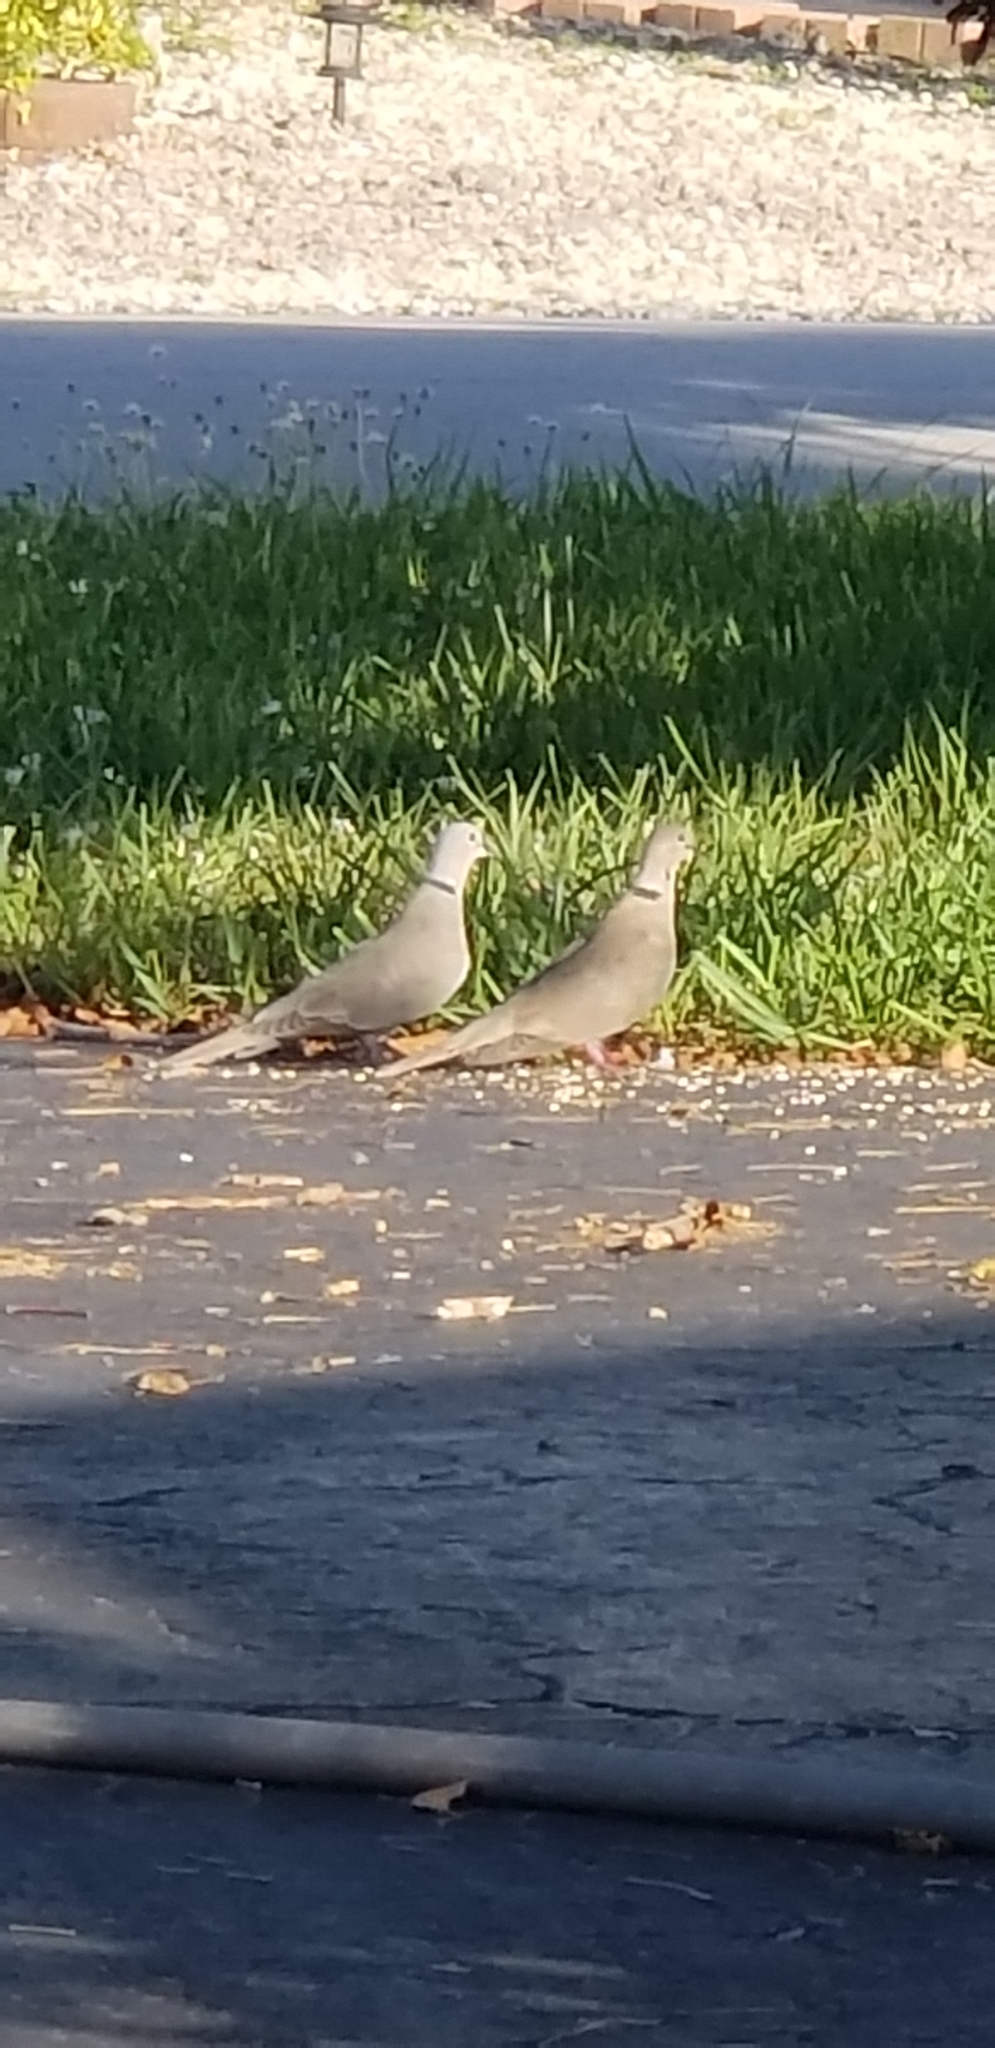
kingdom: Animalia
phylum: Chordata
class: Aves
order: Columbiformes
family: Columbidae
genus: Streptopelia
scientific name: Streptopelia decaocto
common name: Eurasian collared dove
